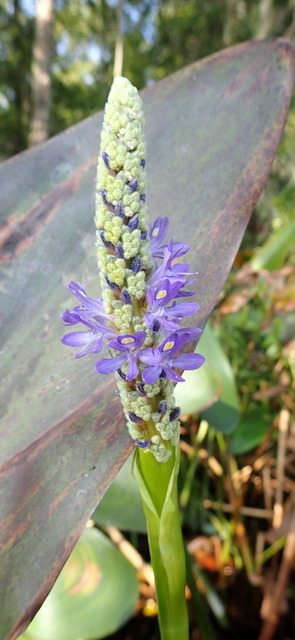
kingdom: Plantae
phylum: Tracheophyta
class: Liliopsida
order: Commelinales
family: Pontederiaceae
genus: Pontederia
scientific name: Pontederia cordata
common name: Pickerelweed
